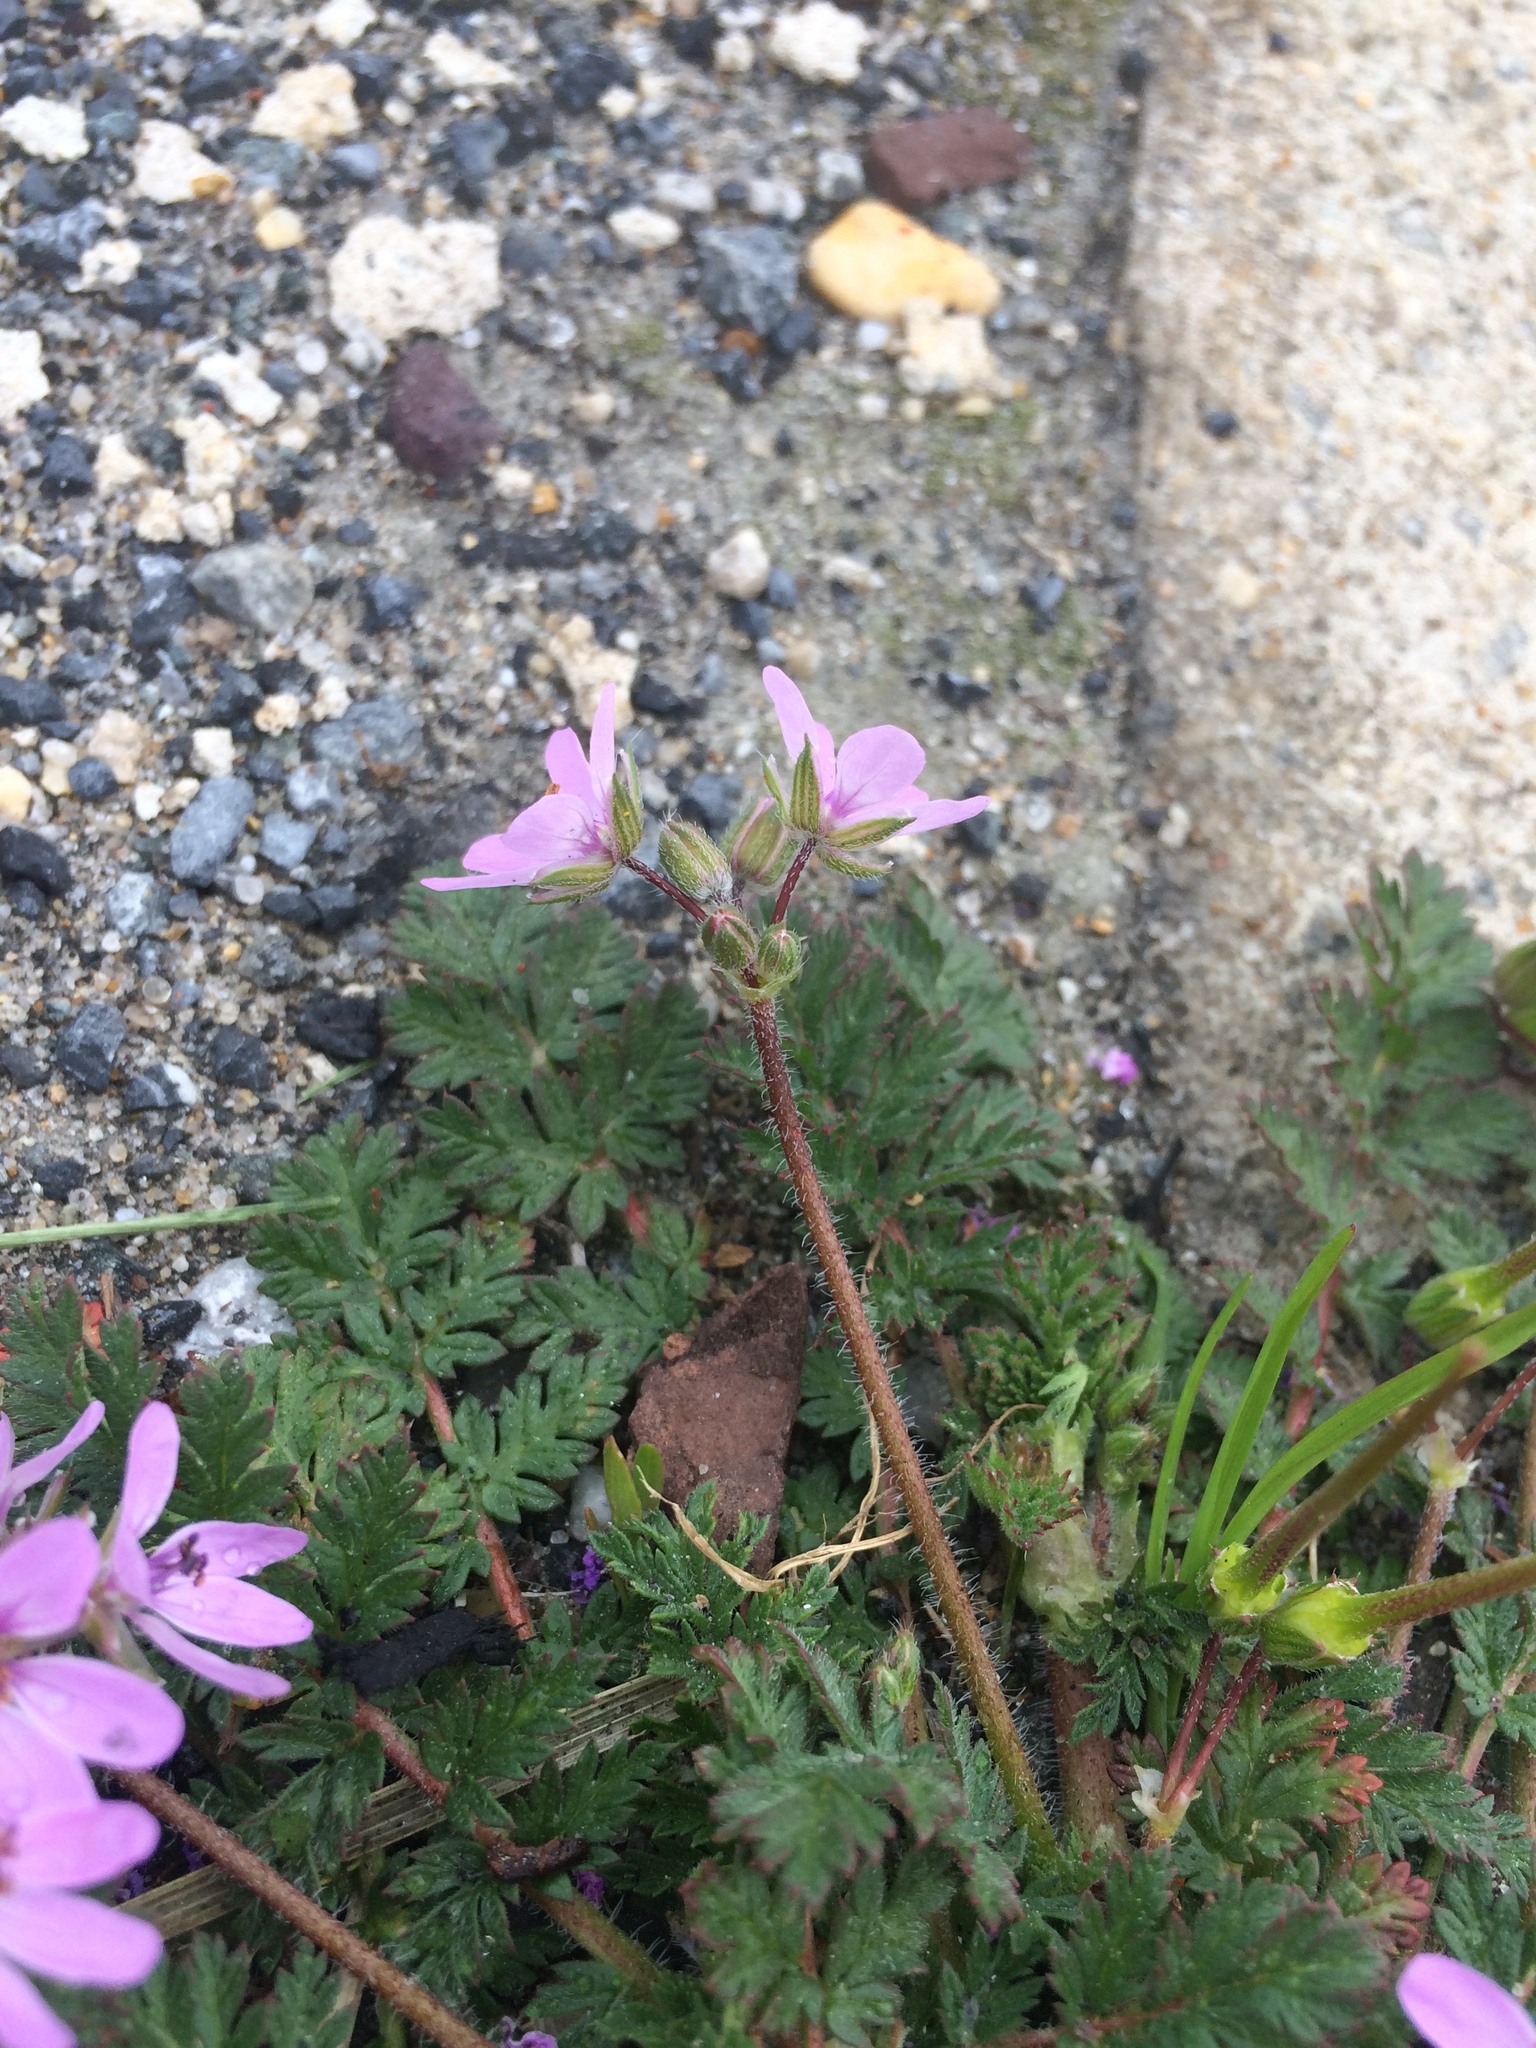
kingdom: Plantae
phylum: Tracheophyta
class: Magnoliopsida
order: Geraniales
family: Geraniaceae
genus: Erodium
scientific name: Erodium cicutarium
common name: Common stork's-bill
